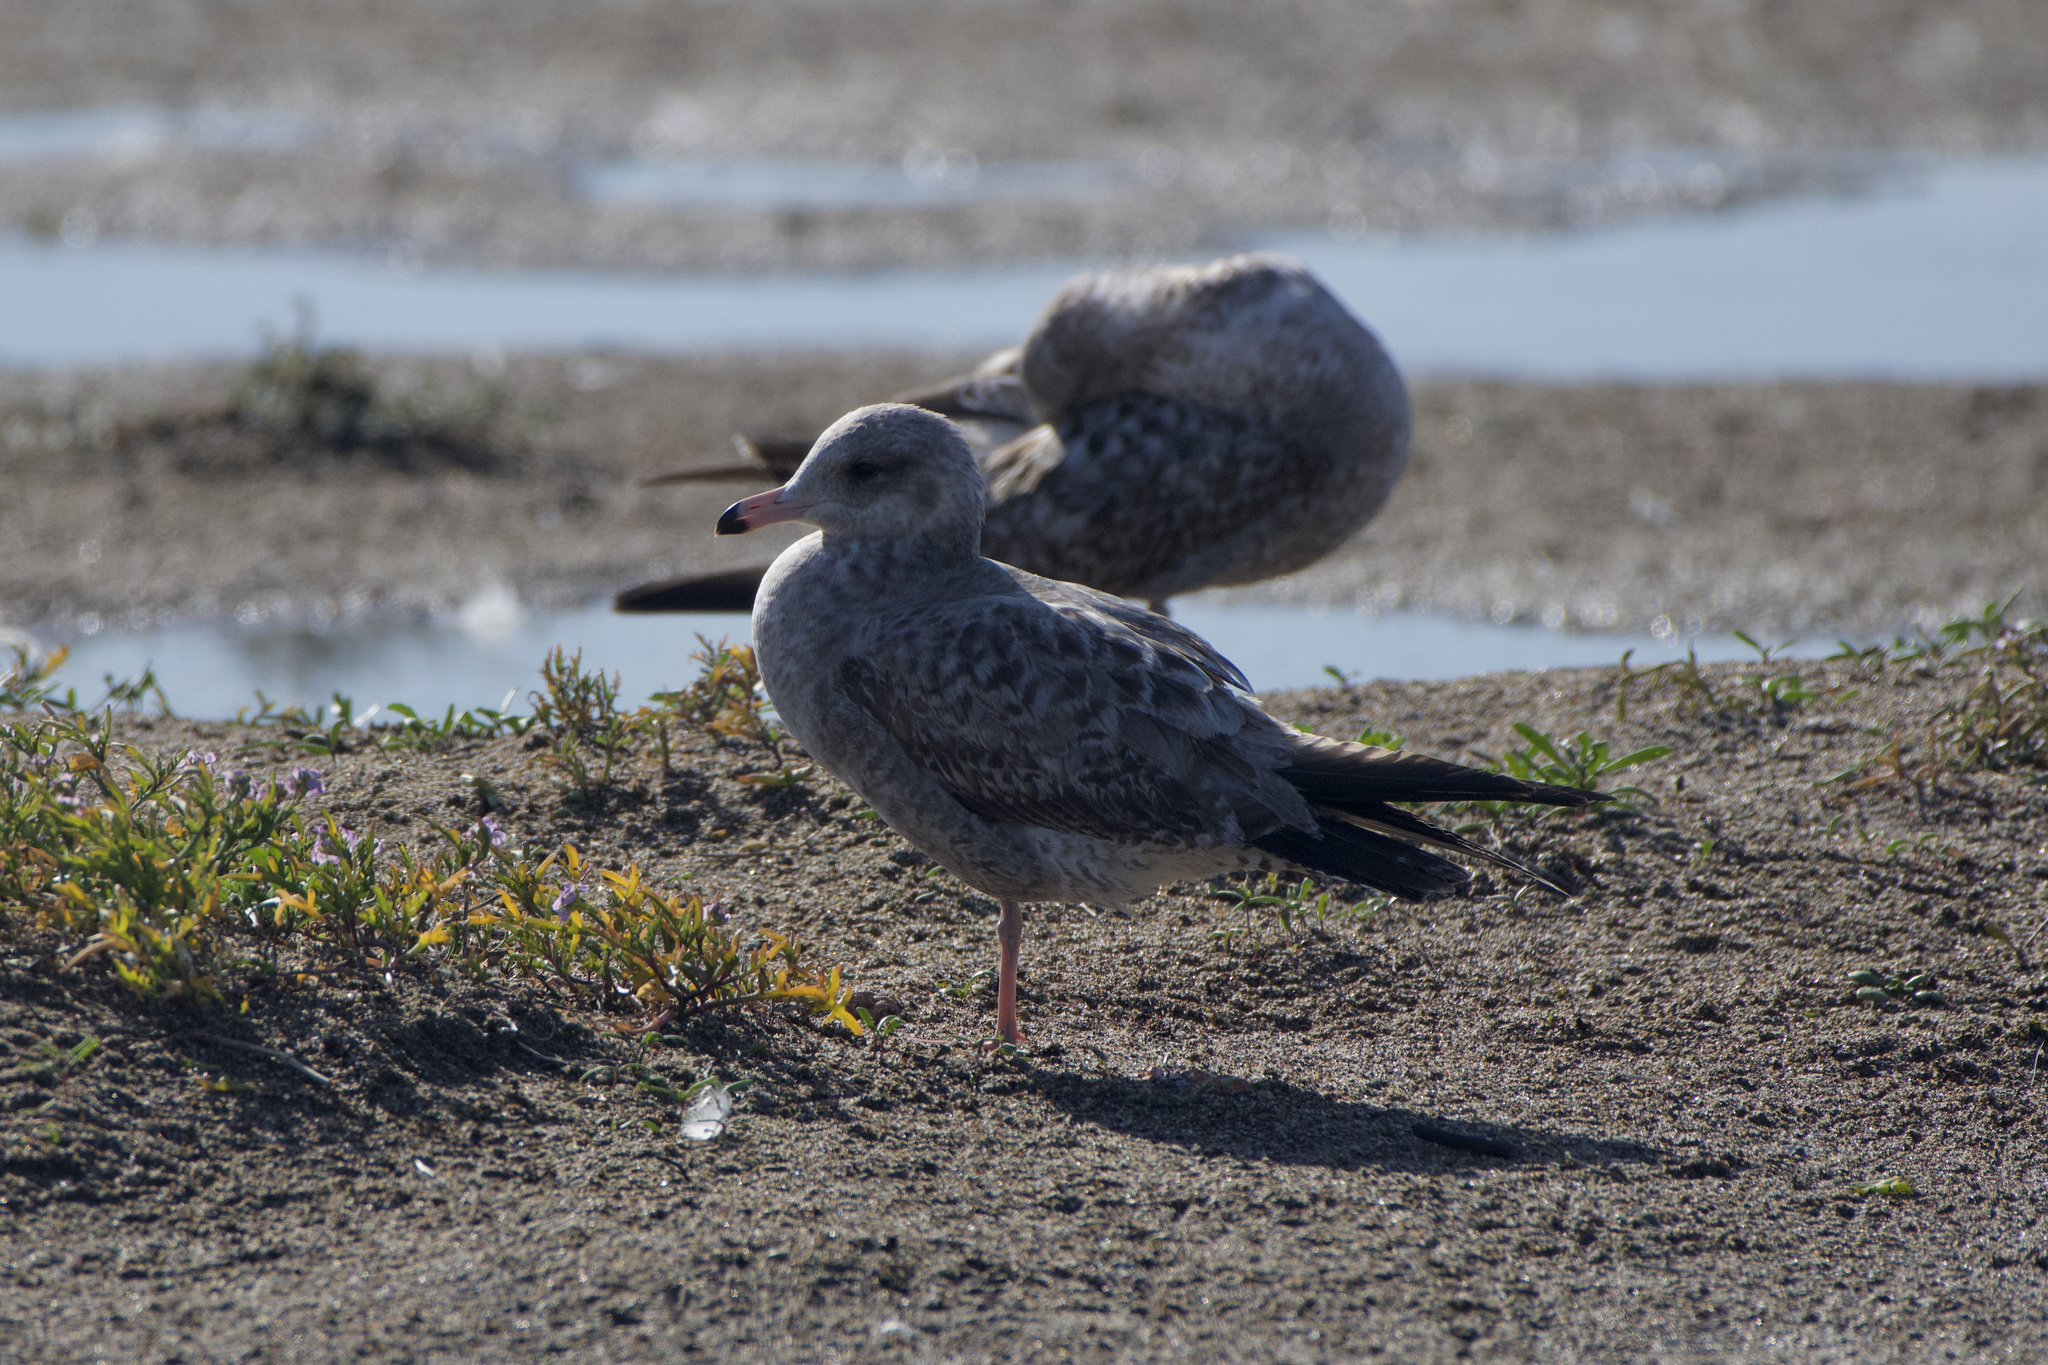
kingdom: Animalia
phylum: Chordata
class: Aves
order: Charadriiformes
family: Laridae
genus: Larus
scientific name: Larus californicus
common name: California gull
